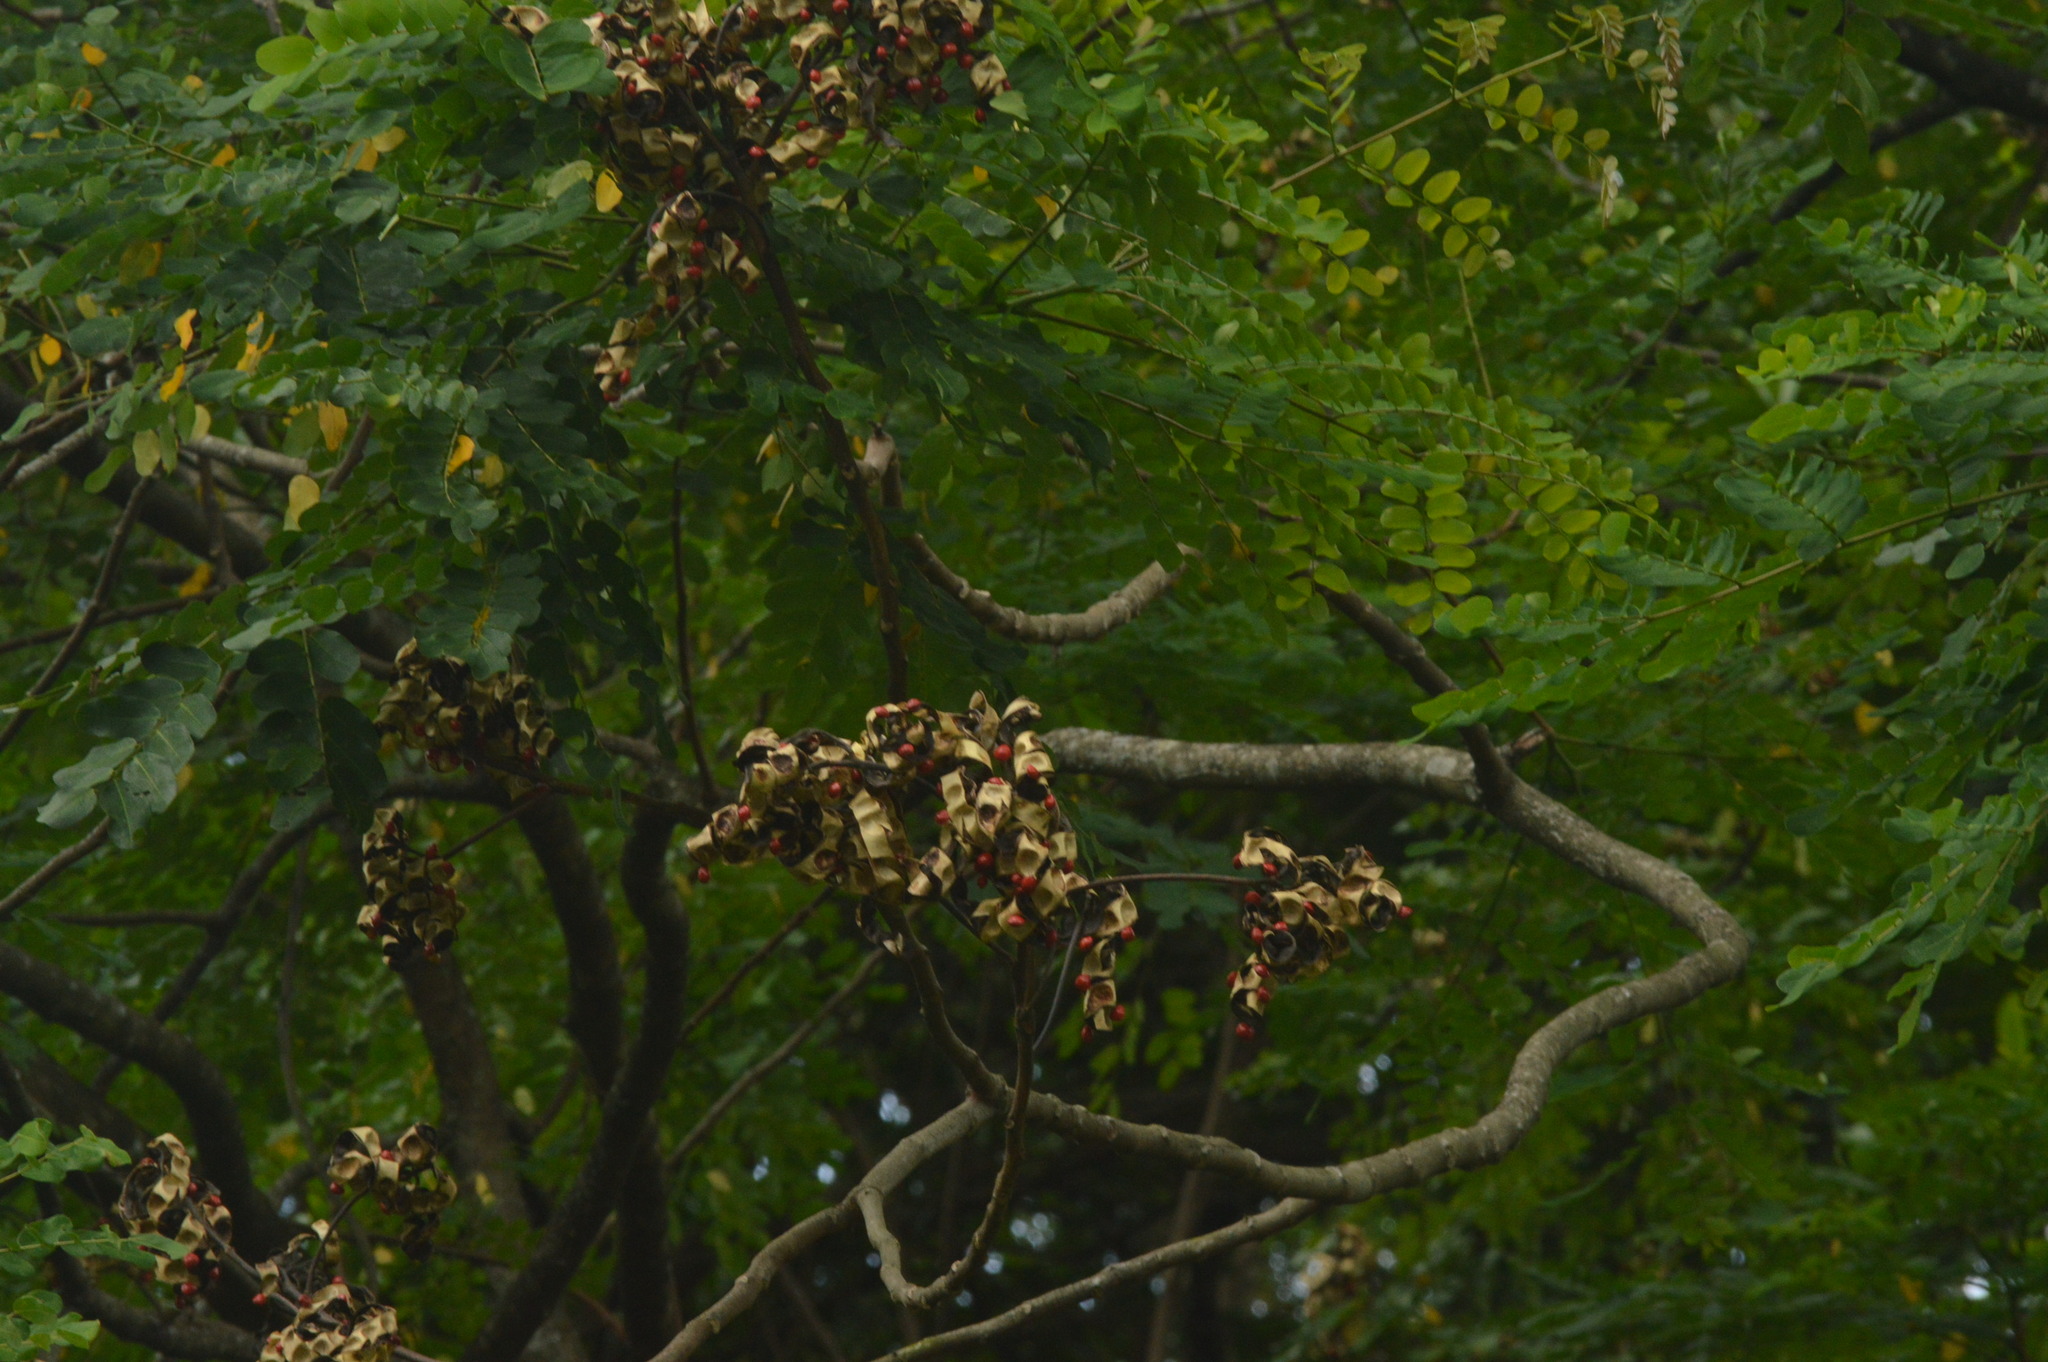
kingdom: Plantae
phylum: Tracheophyta
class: Magnoliopsida
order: Fabales
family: Fabaceae
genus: Adenanthera
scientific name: Adenanthera pavonina
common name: Red beadtree
